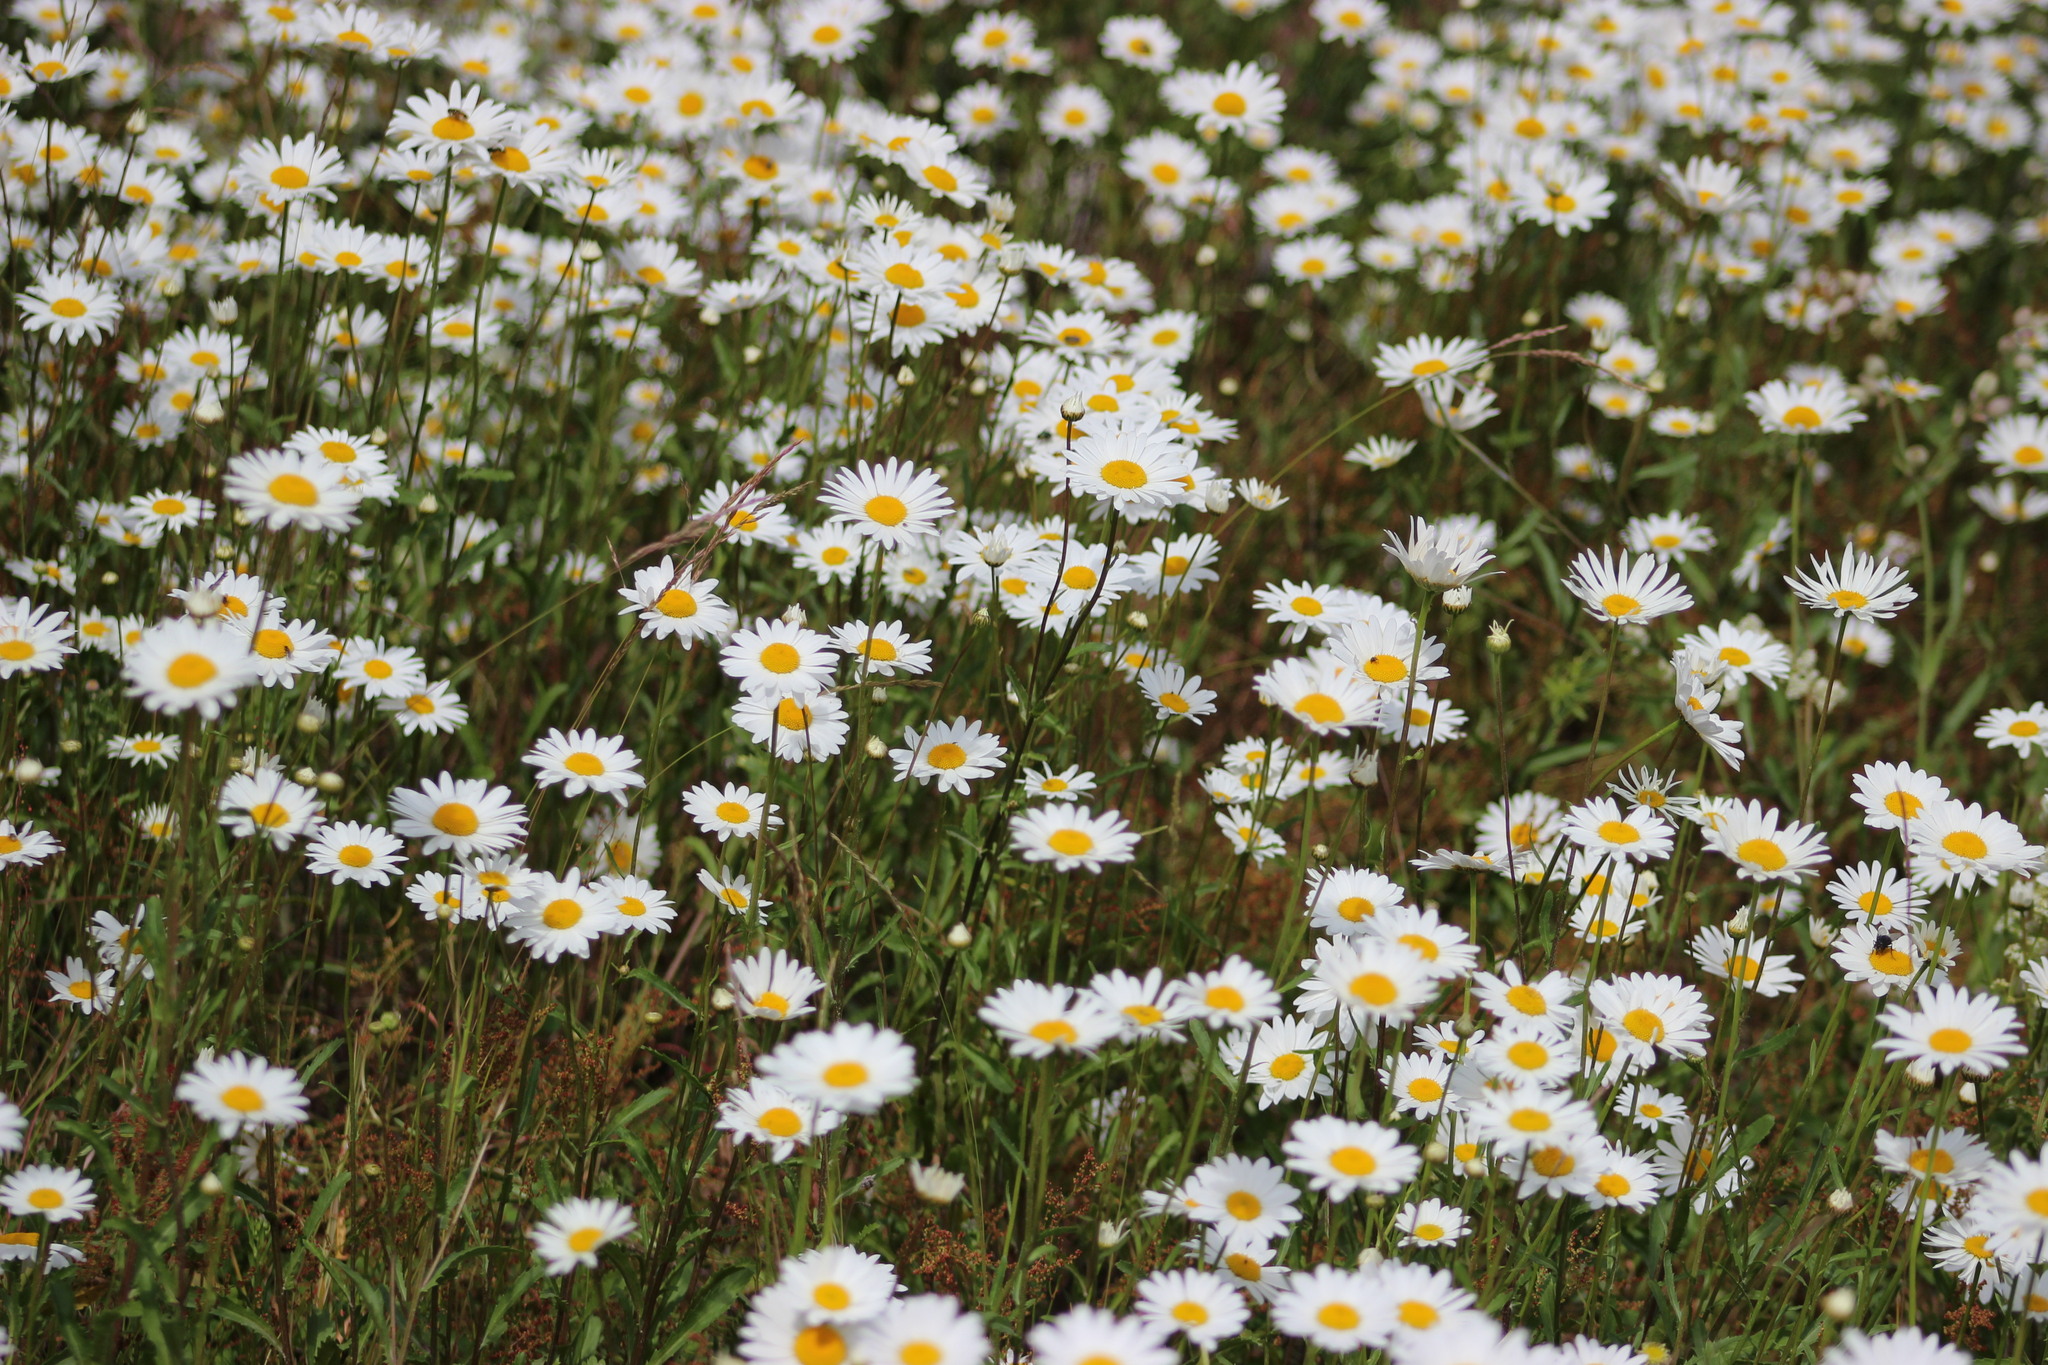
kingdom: Plantae
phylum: Tracheophyta
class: Magnoliopsida
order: Asterales
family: Asteraceae
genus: Leucanthemum
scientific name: Leucanthemum ircutianum
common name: Daisy
